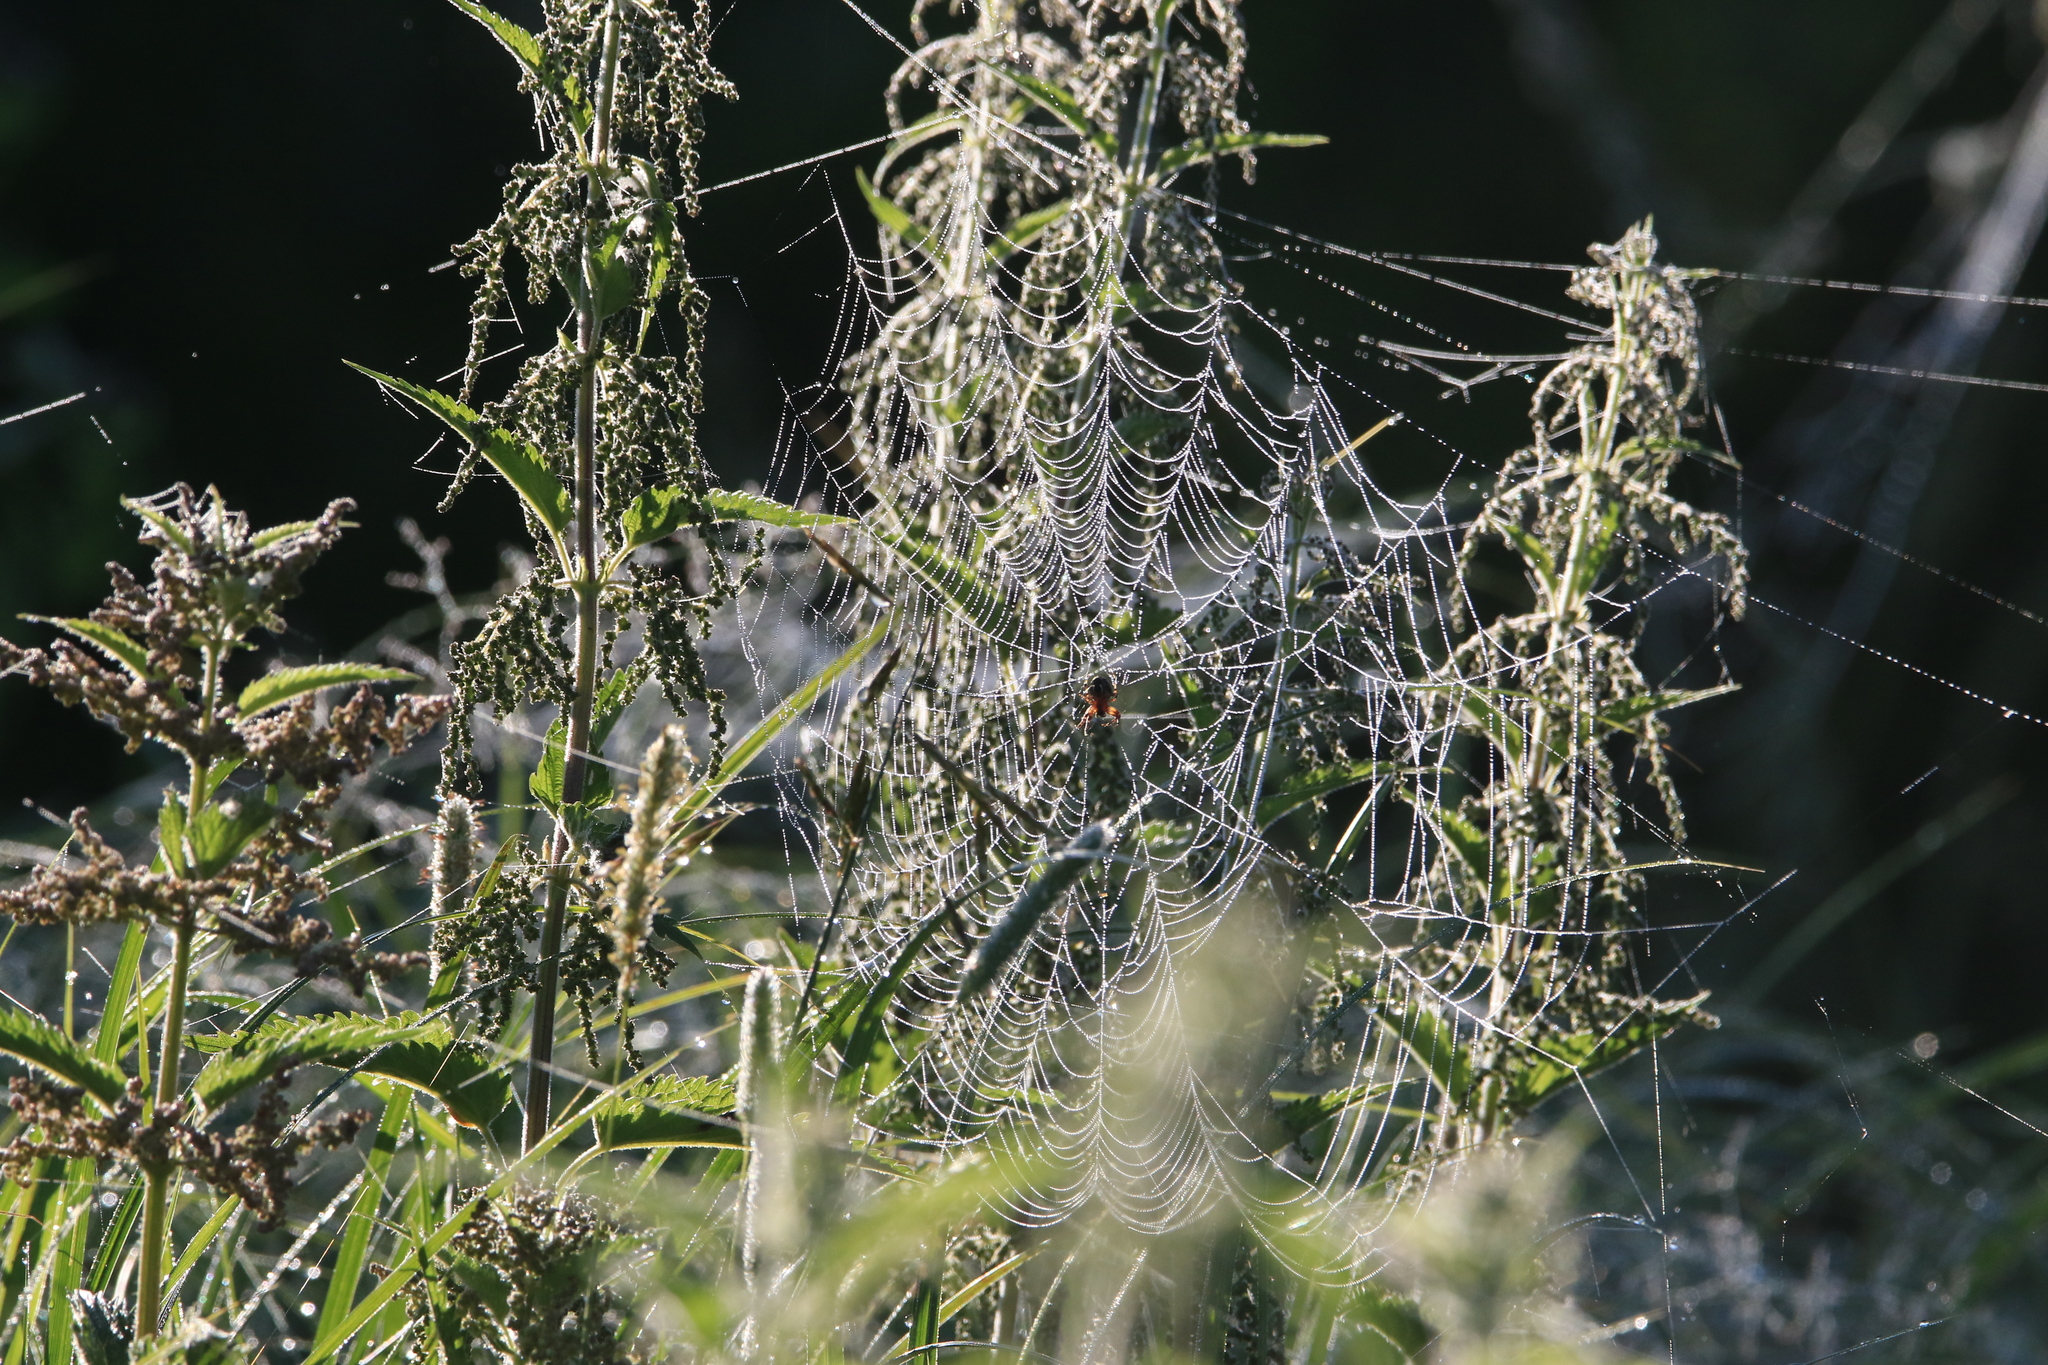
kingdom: Plantae
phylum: Tracheophyta
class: Magnoliopsida
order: Rosales
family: Urticaceae
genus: Urtica
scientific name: Urtica dioica
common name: Common nettle
